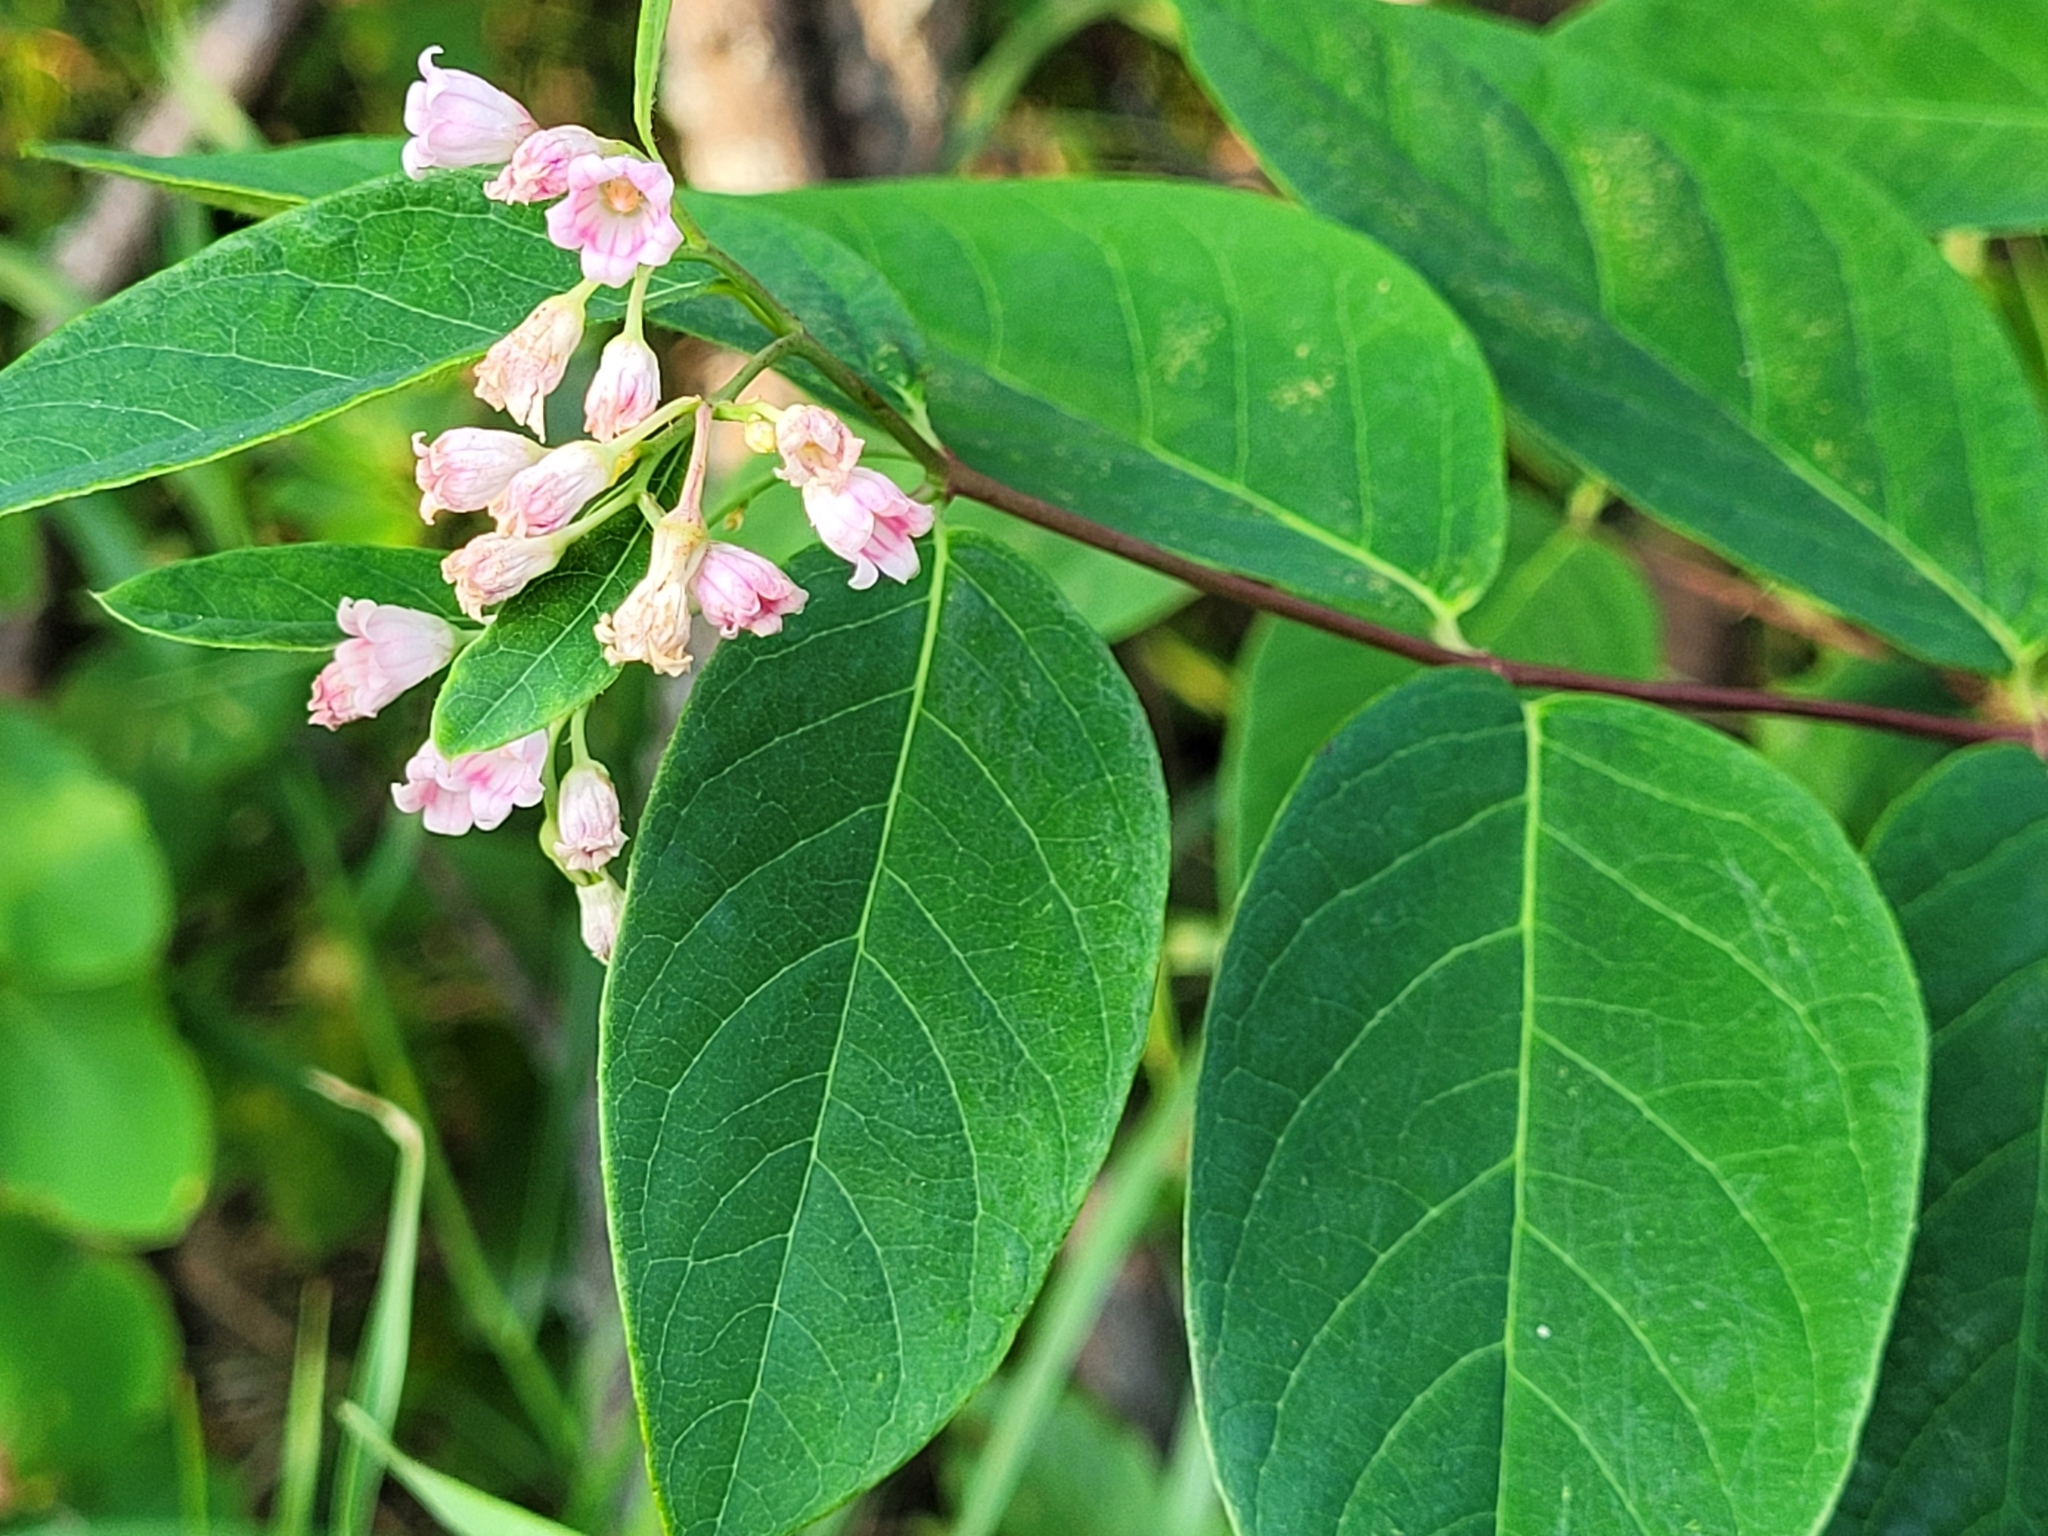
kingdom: Plantae
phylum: Tracheophyta
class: Magnoliopsida
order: Gentianales
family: Apocynaceae
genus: Apocynum
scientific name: Apocynum androsaemifolium
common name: Spreading dogbane
